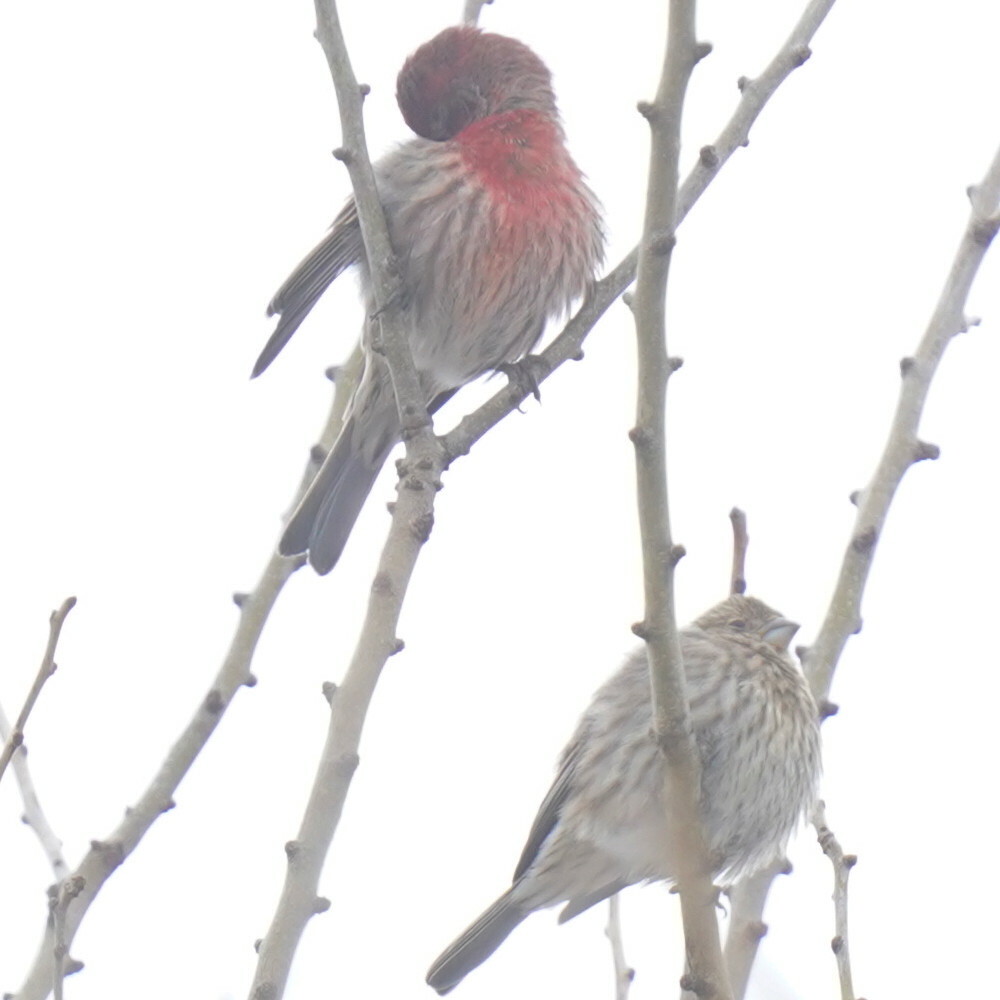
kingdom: Animalia
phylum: Chordata
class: Aves
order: Passeriformes
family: Fringillidae
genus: Haemorhous
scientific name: Haemorhous mexicanus
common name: House finch
